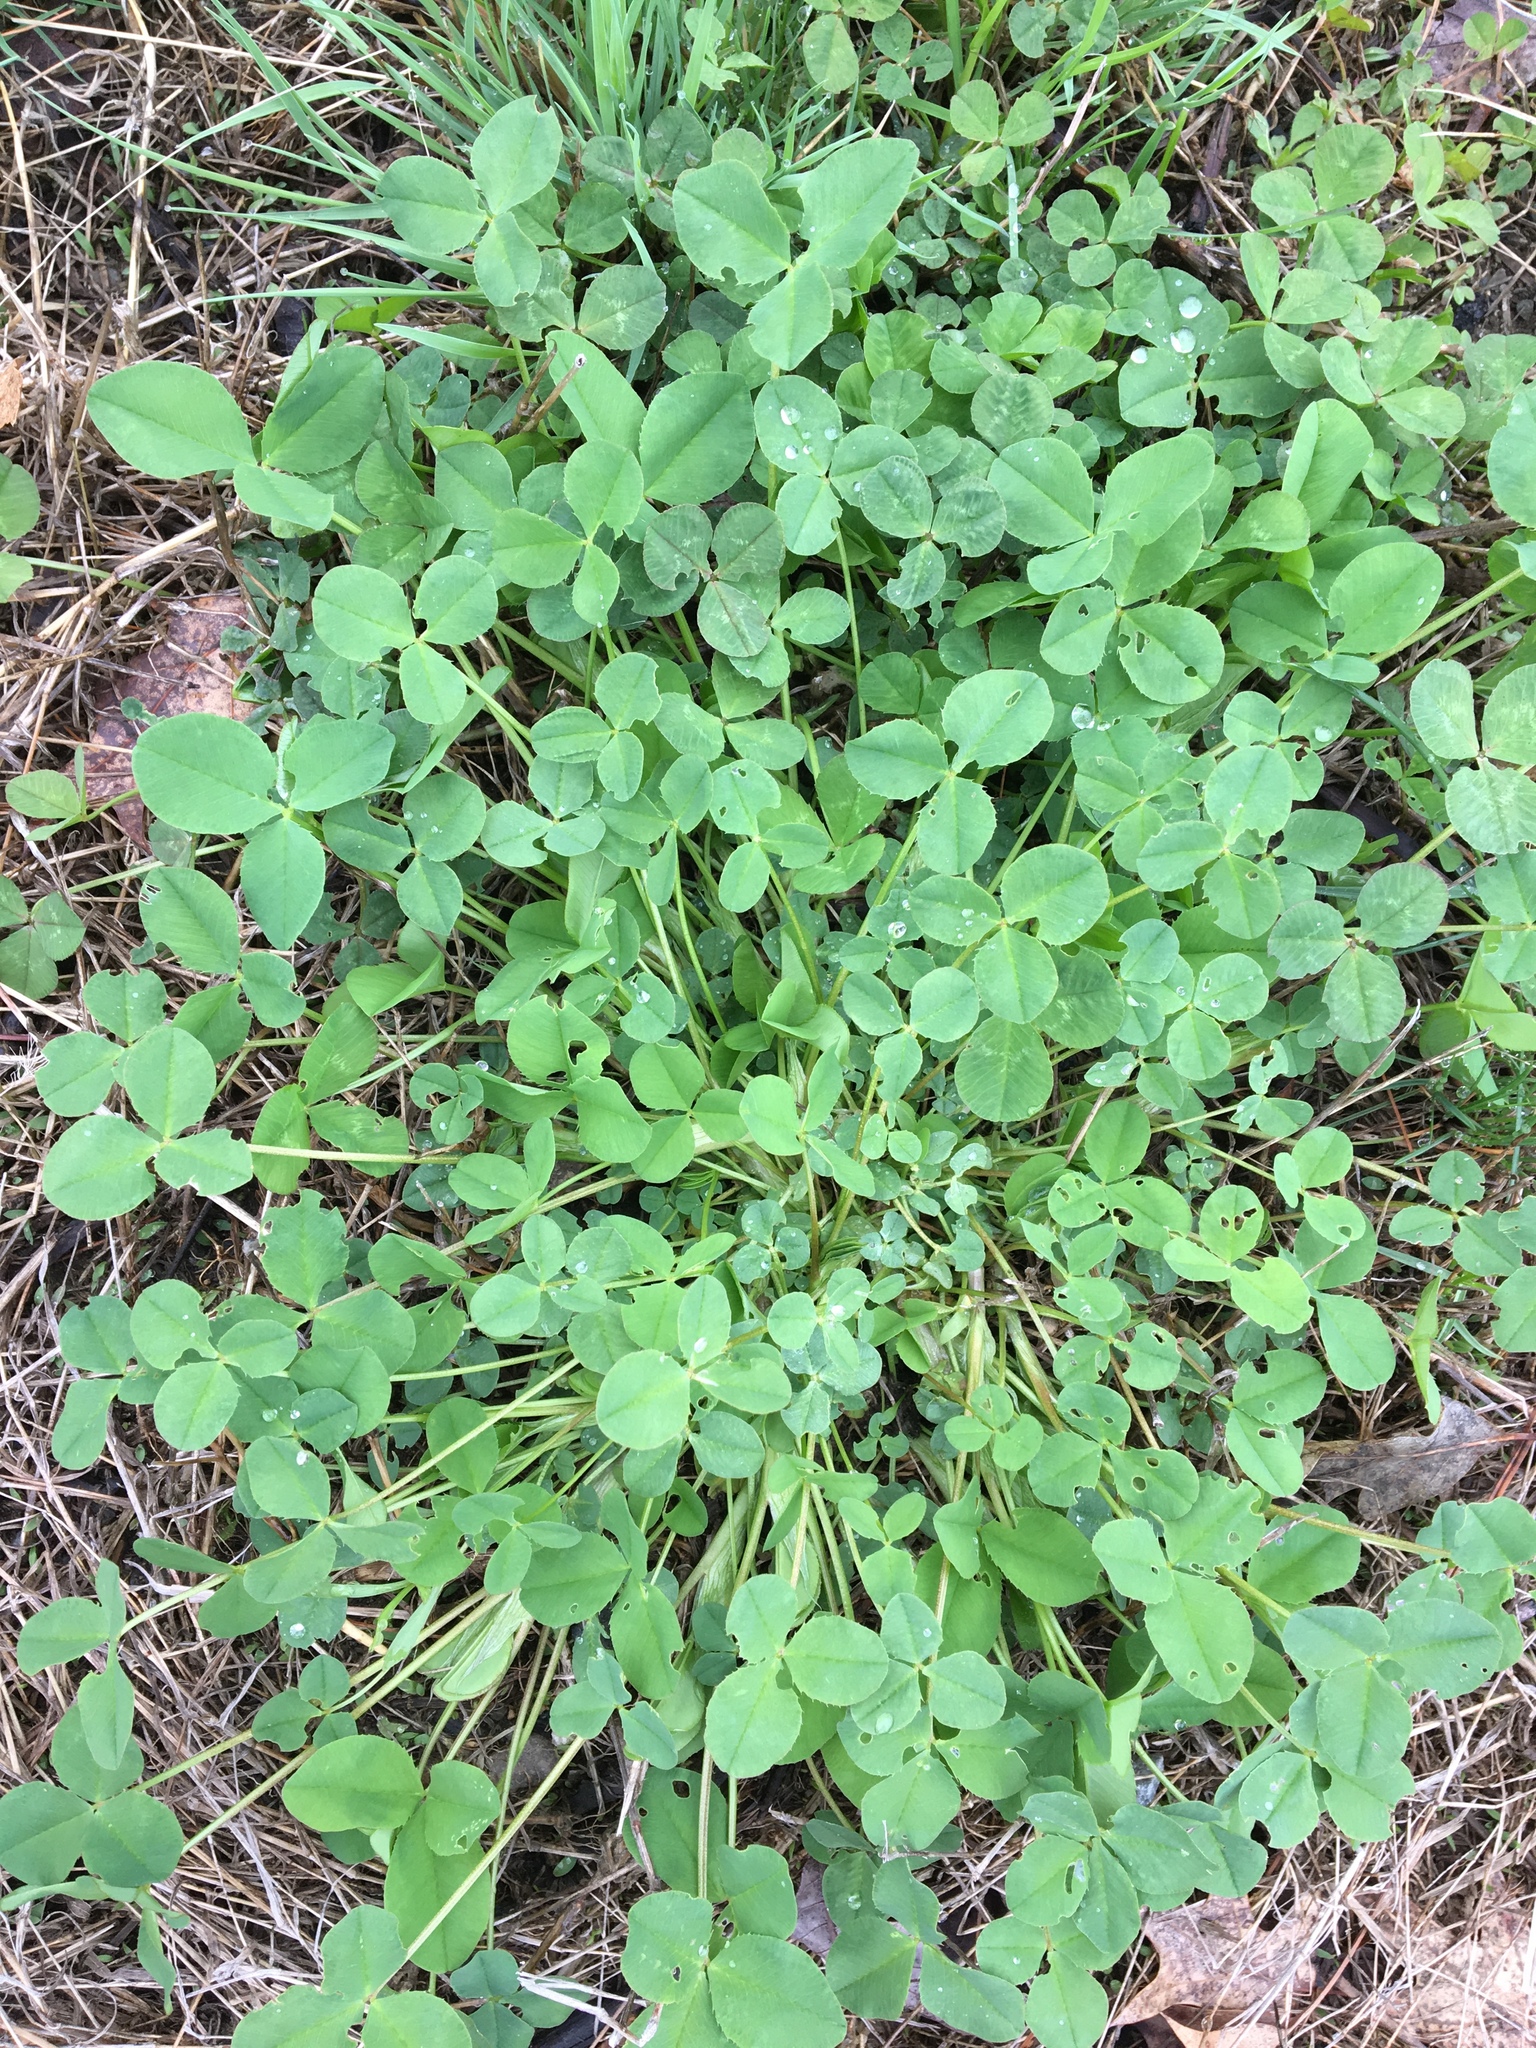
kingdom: Plantae
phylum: Tracheophyta
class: Magnoliopsida
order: Fabales
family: Fabaceae
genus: Trifolium
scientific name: Trifolium hybridum
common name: Alsike clover
